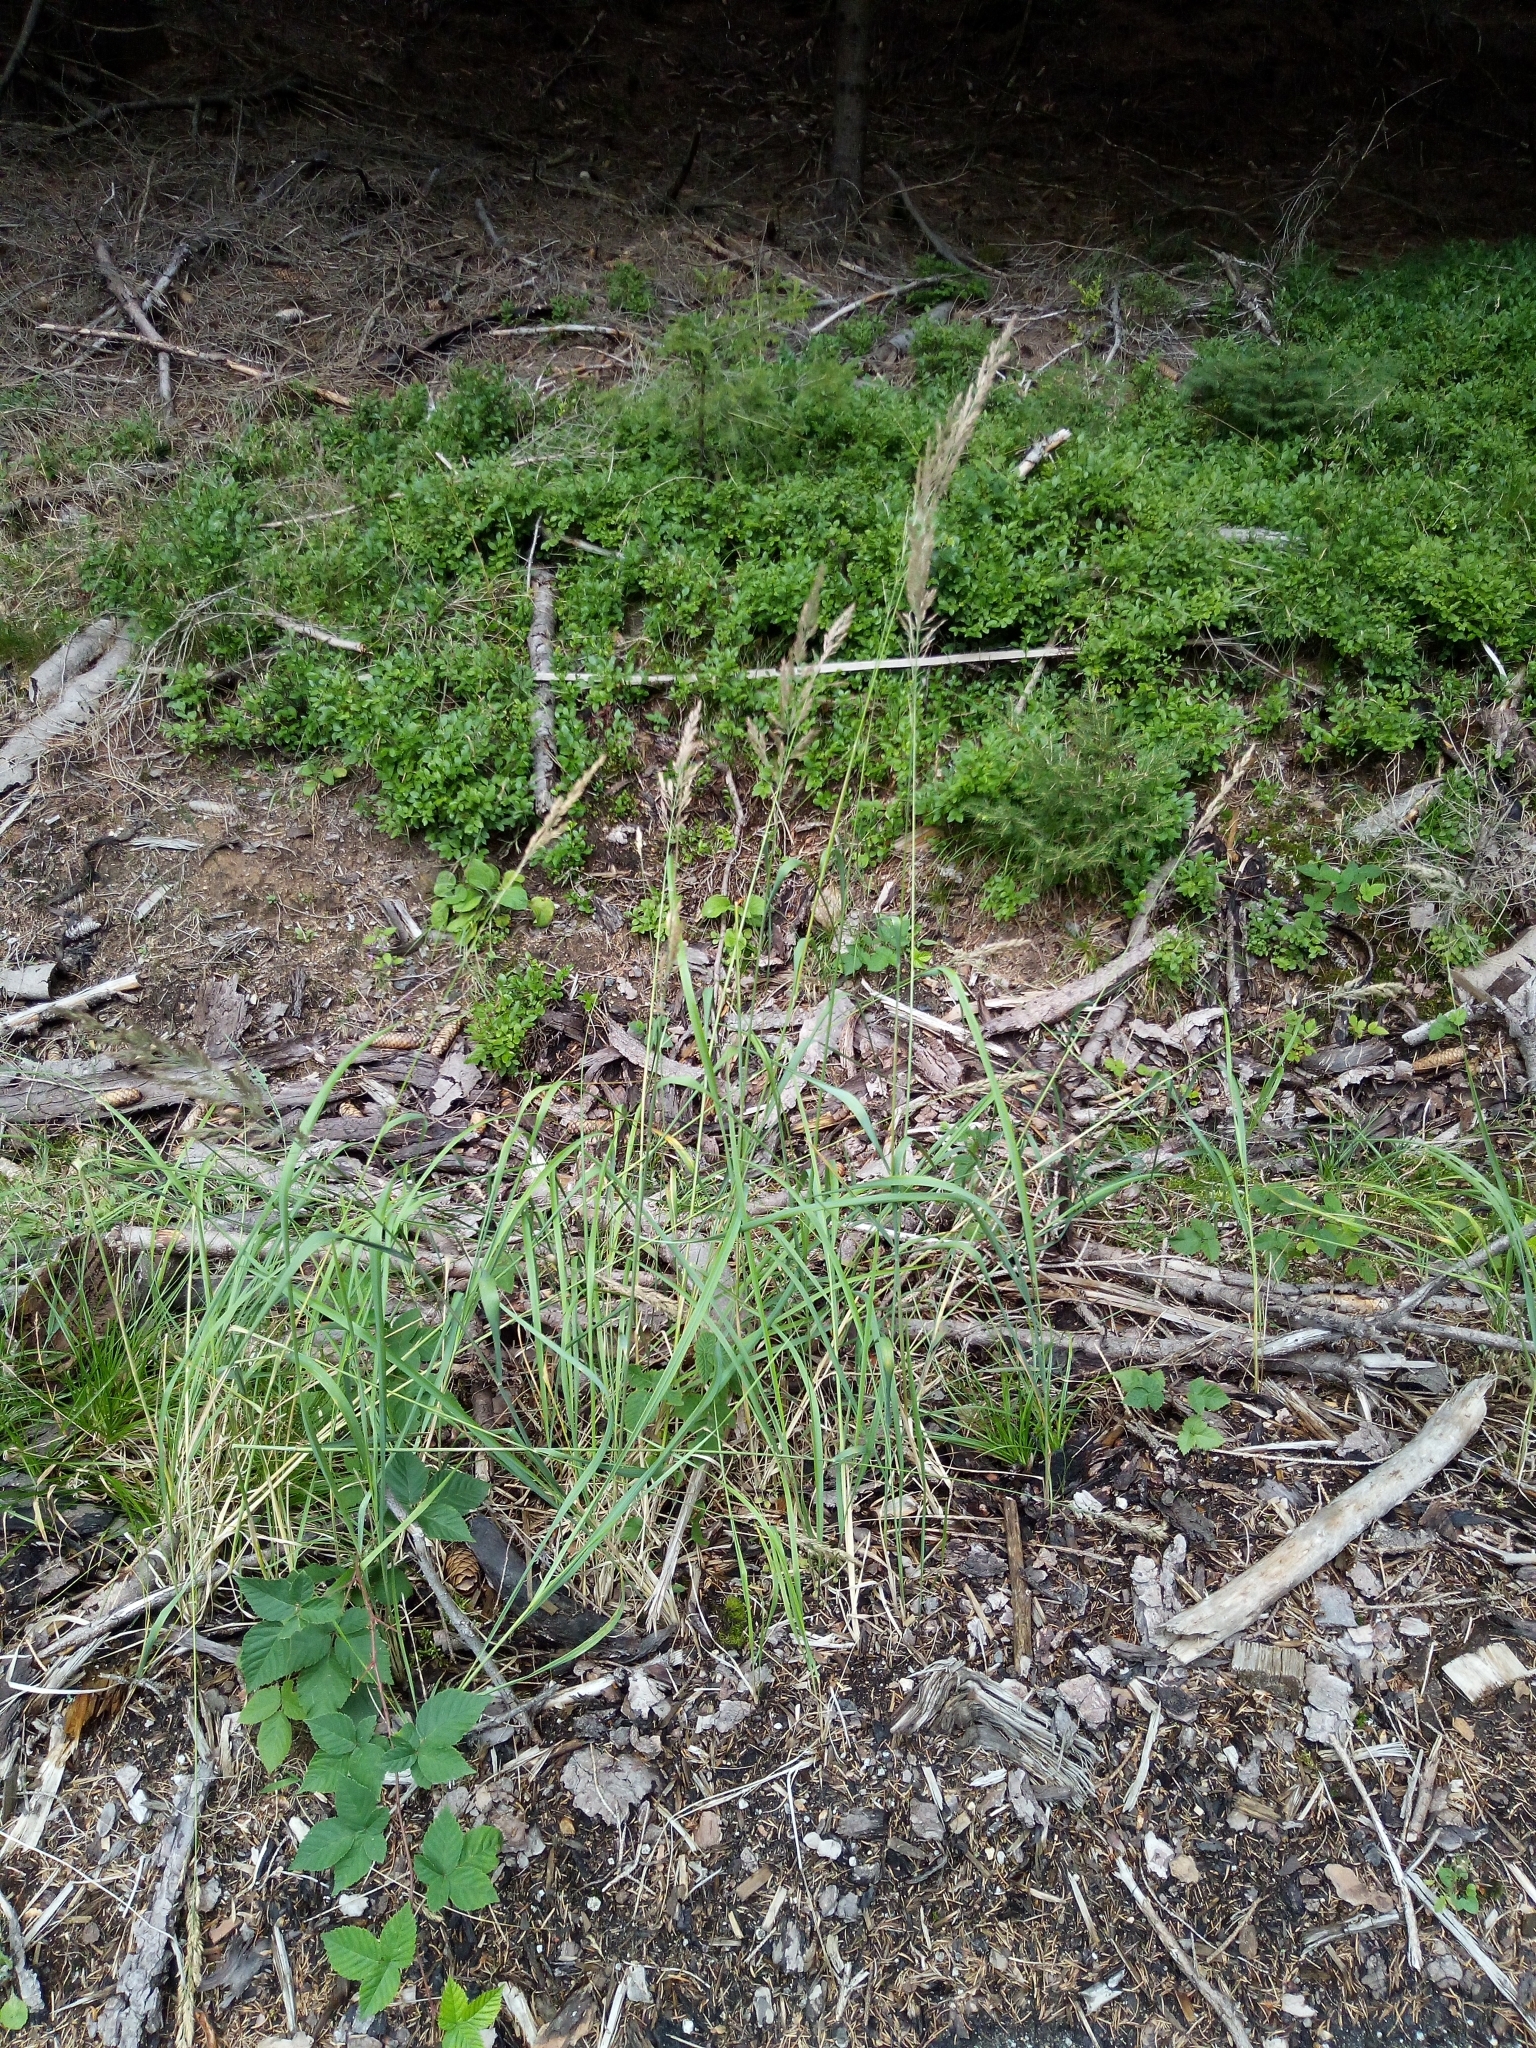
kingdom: Plantae
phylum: Tracheophyta
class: Liliopsida
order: Poales
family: Poaceae
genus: Calamagrostis
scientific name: Calamagrostis epigejos
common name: Wood small-reed
